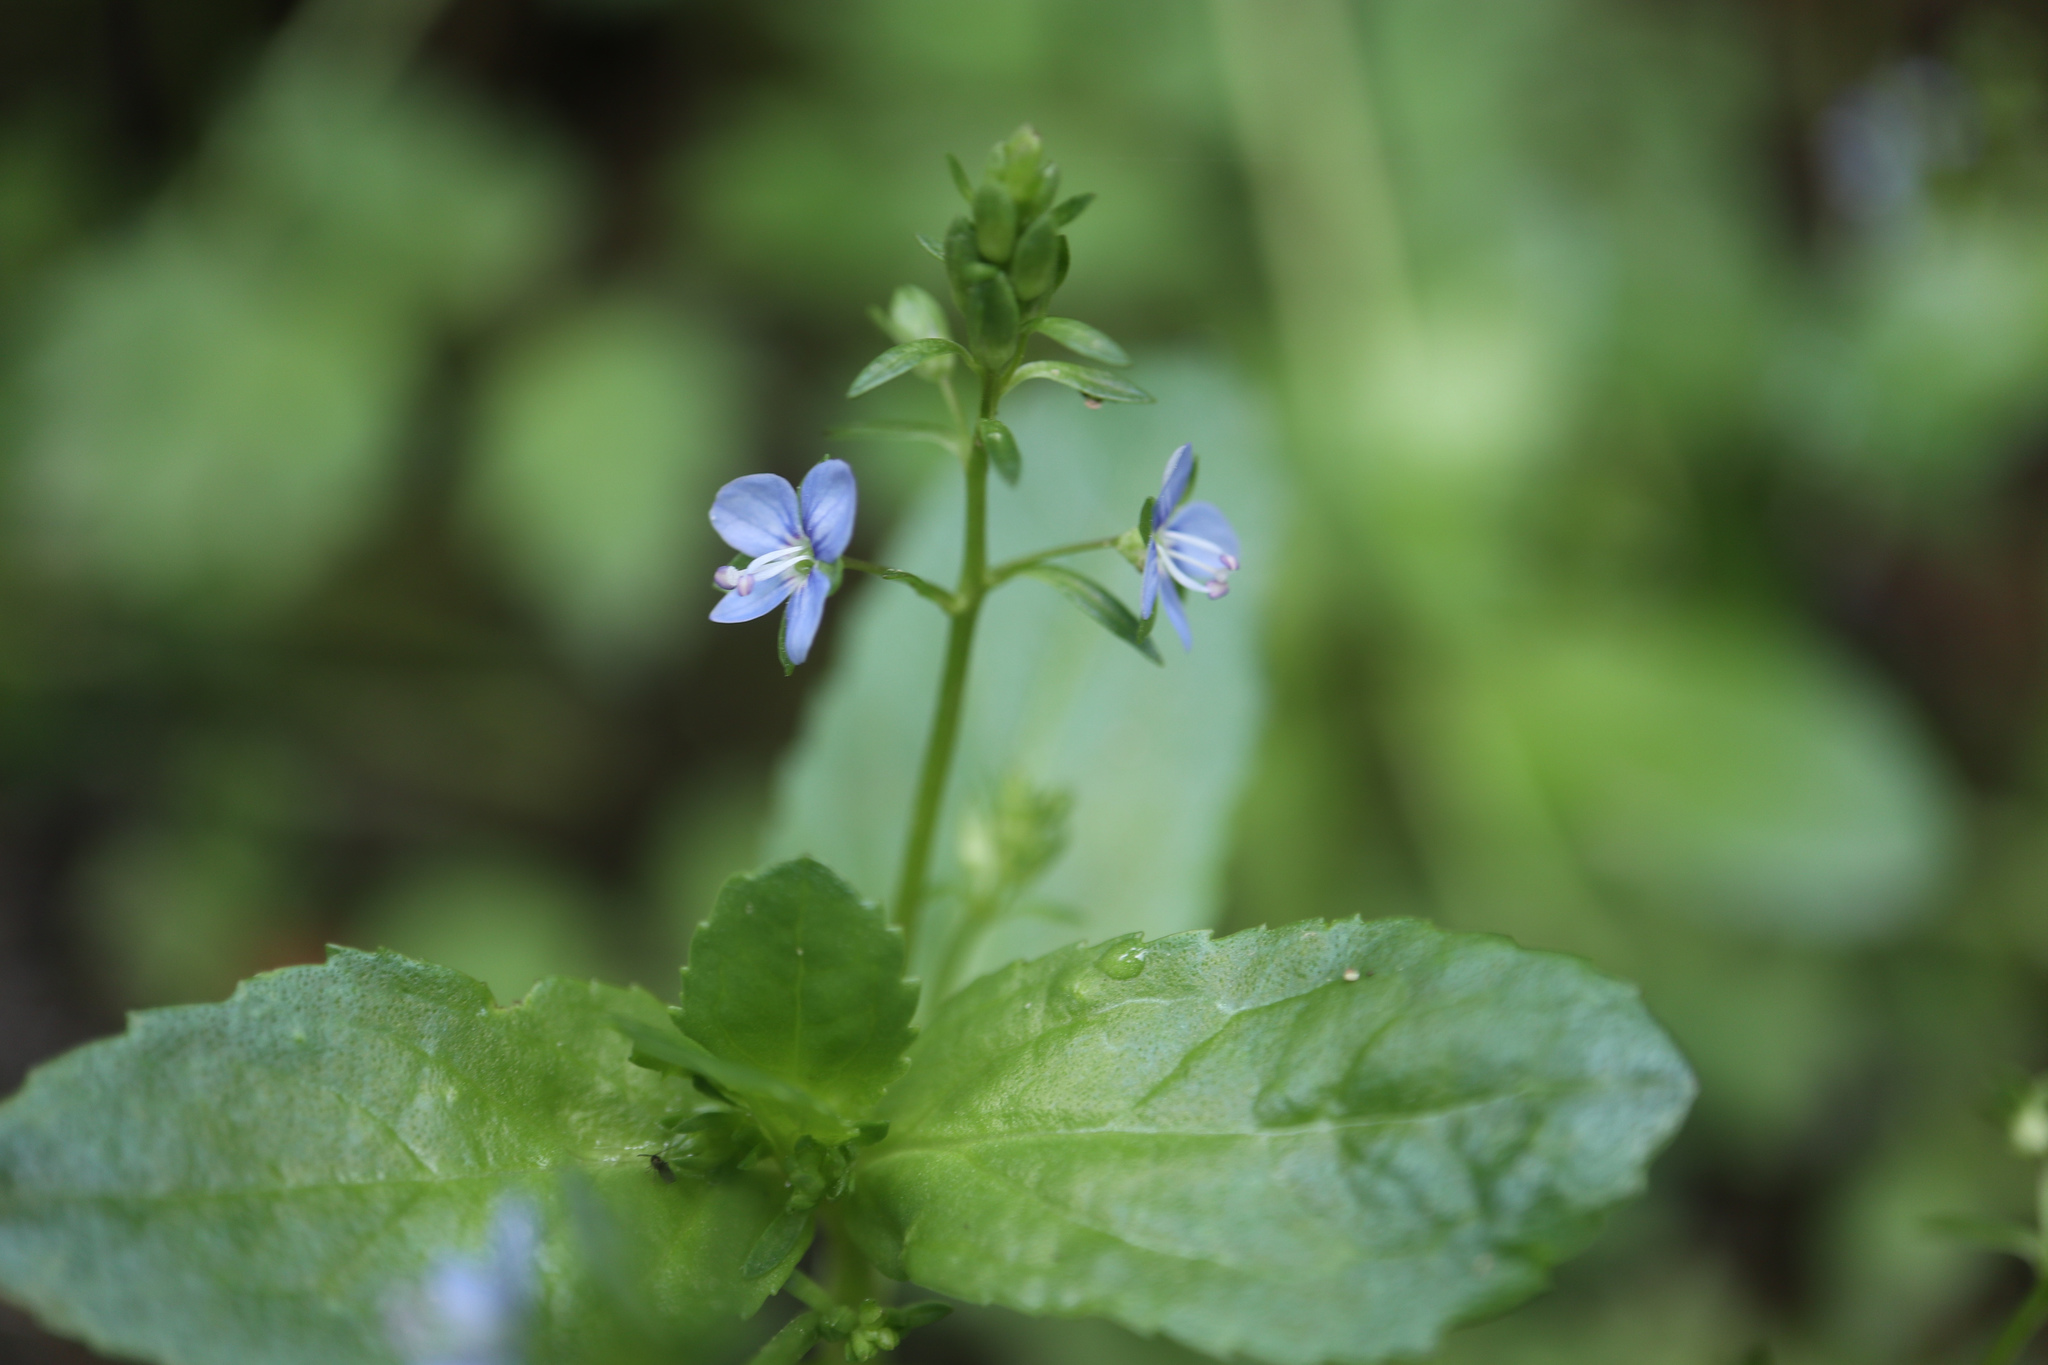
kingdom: Plantae
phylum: Tracheophyta
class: Magnoliopsida
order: Lamiales
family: Plantaginaceae
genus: Veronica
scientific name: Veronica beccabunga
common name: Brooklime
